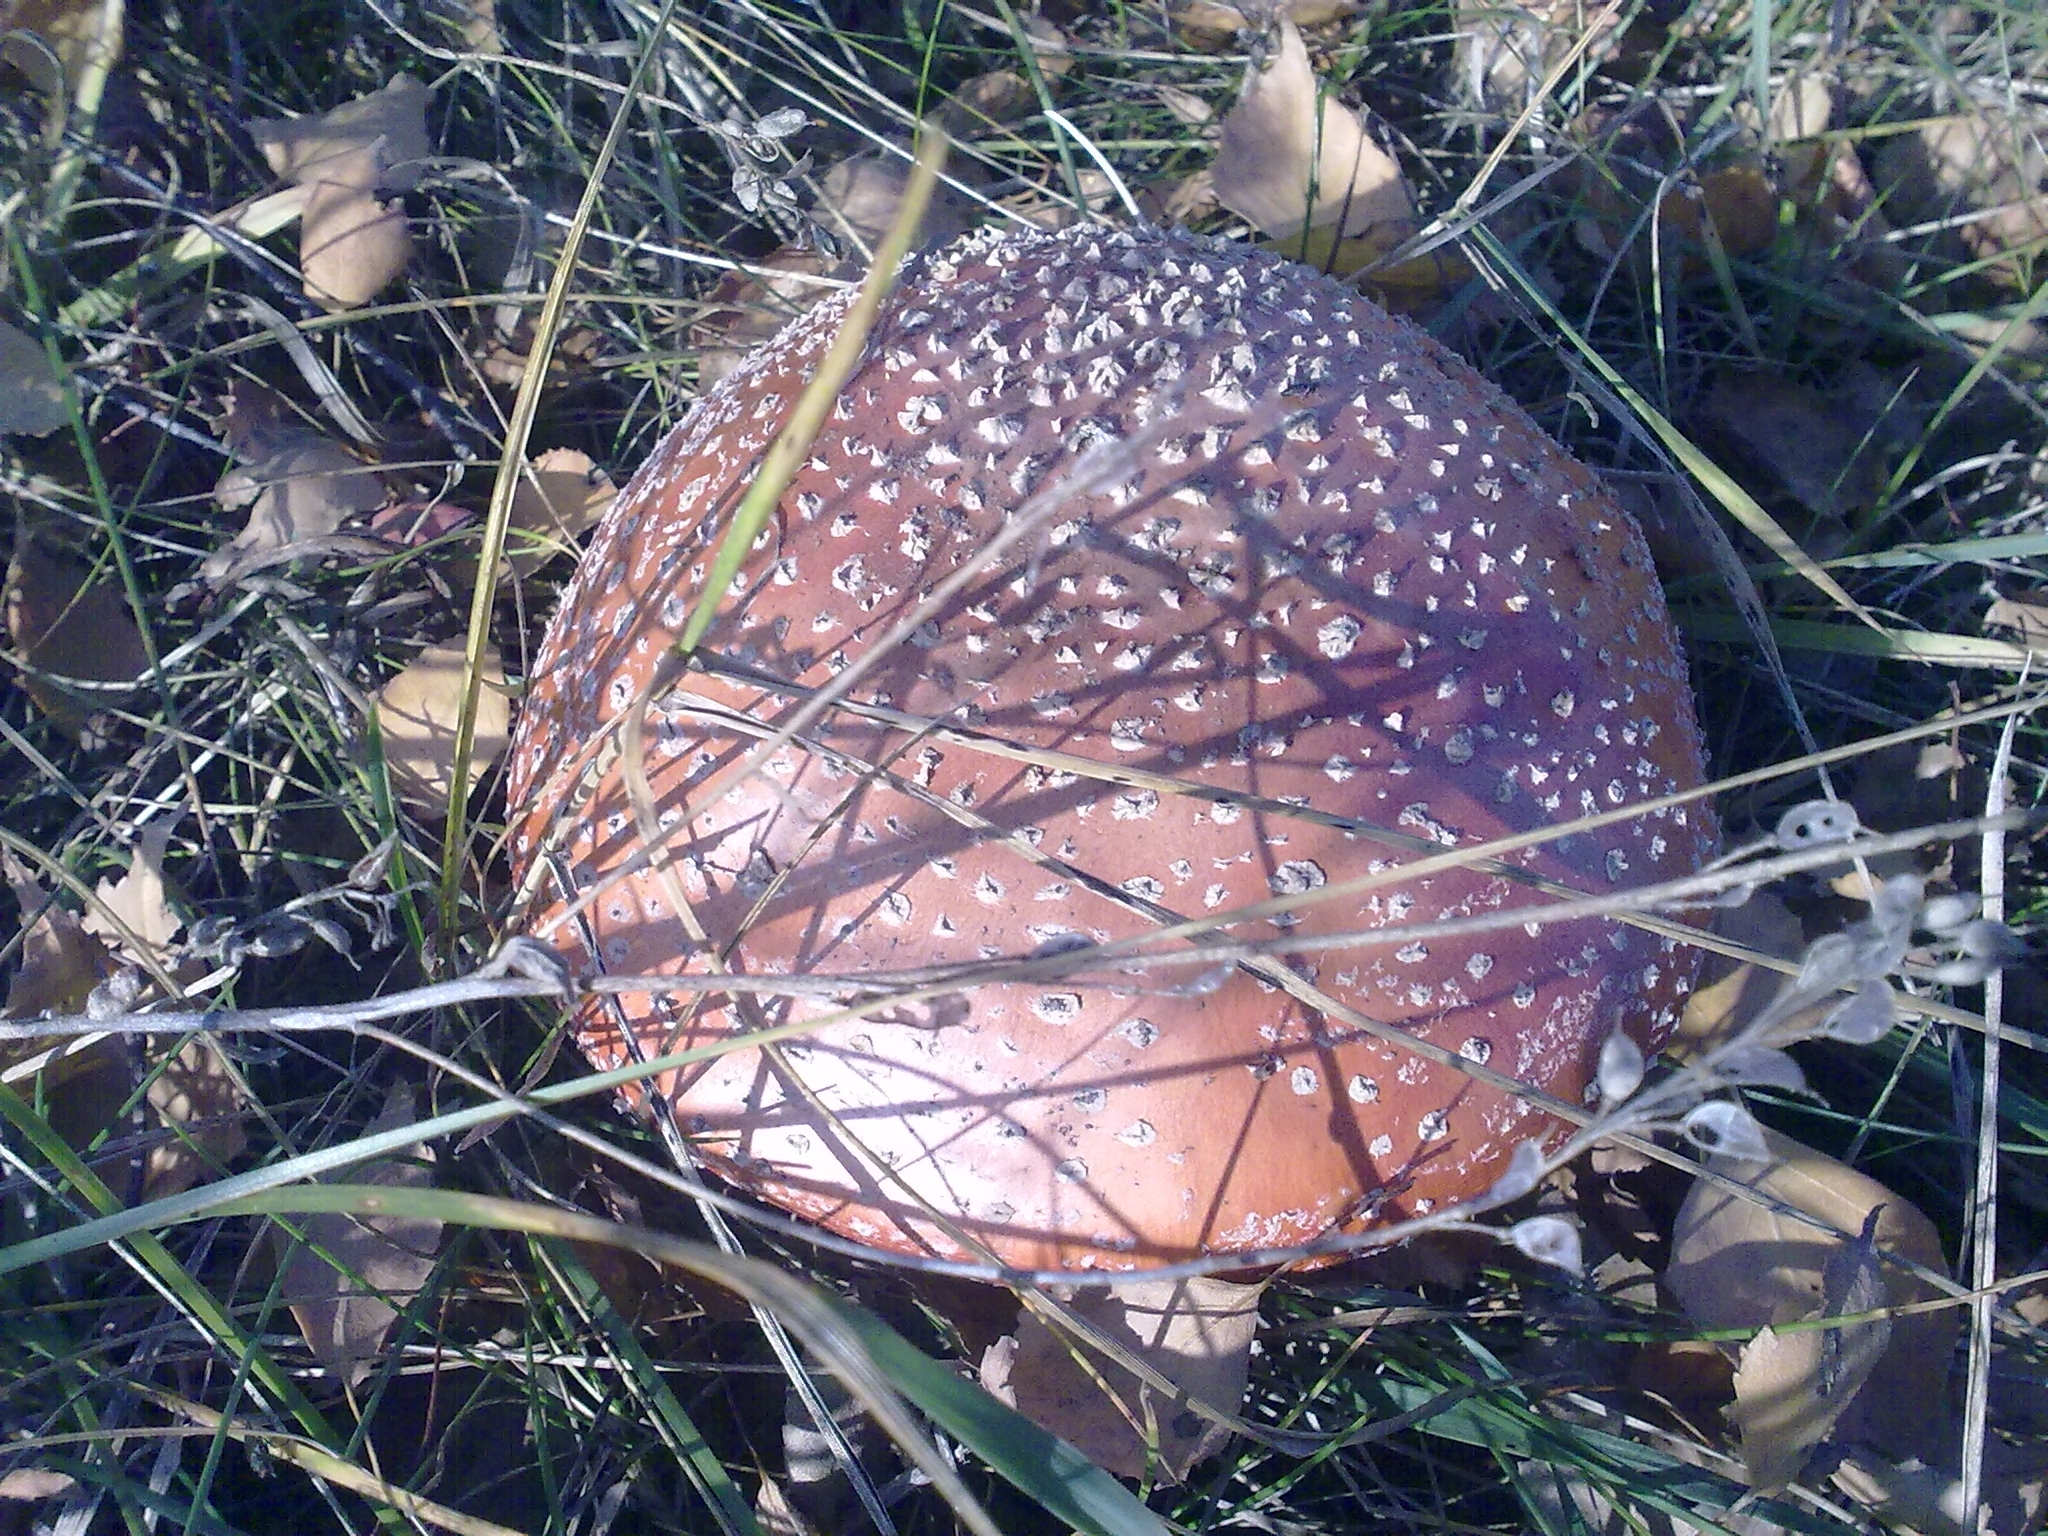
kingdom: Fungi
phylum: Basidiomycota
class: Agaricomycetes
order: Agaricales
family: Amanitaceae
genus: Amanita
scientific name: Amanita muscaria
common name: Fly agaric
